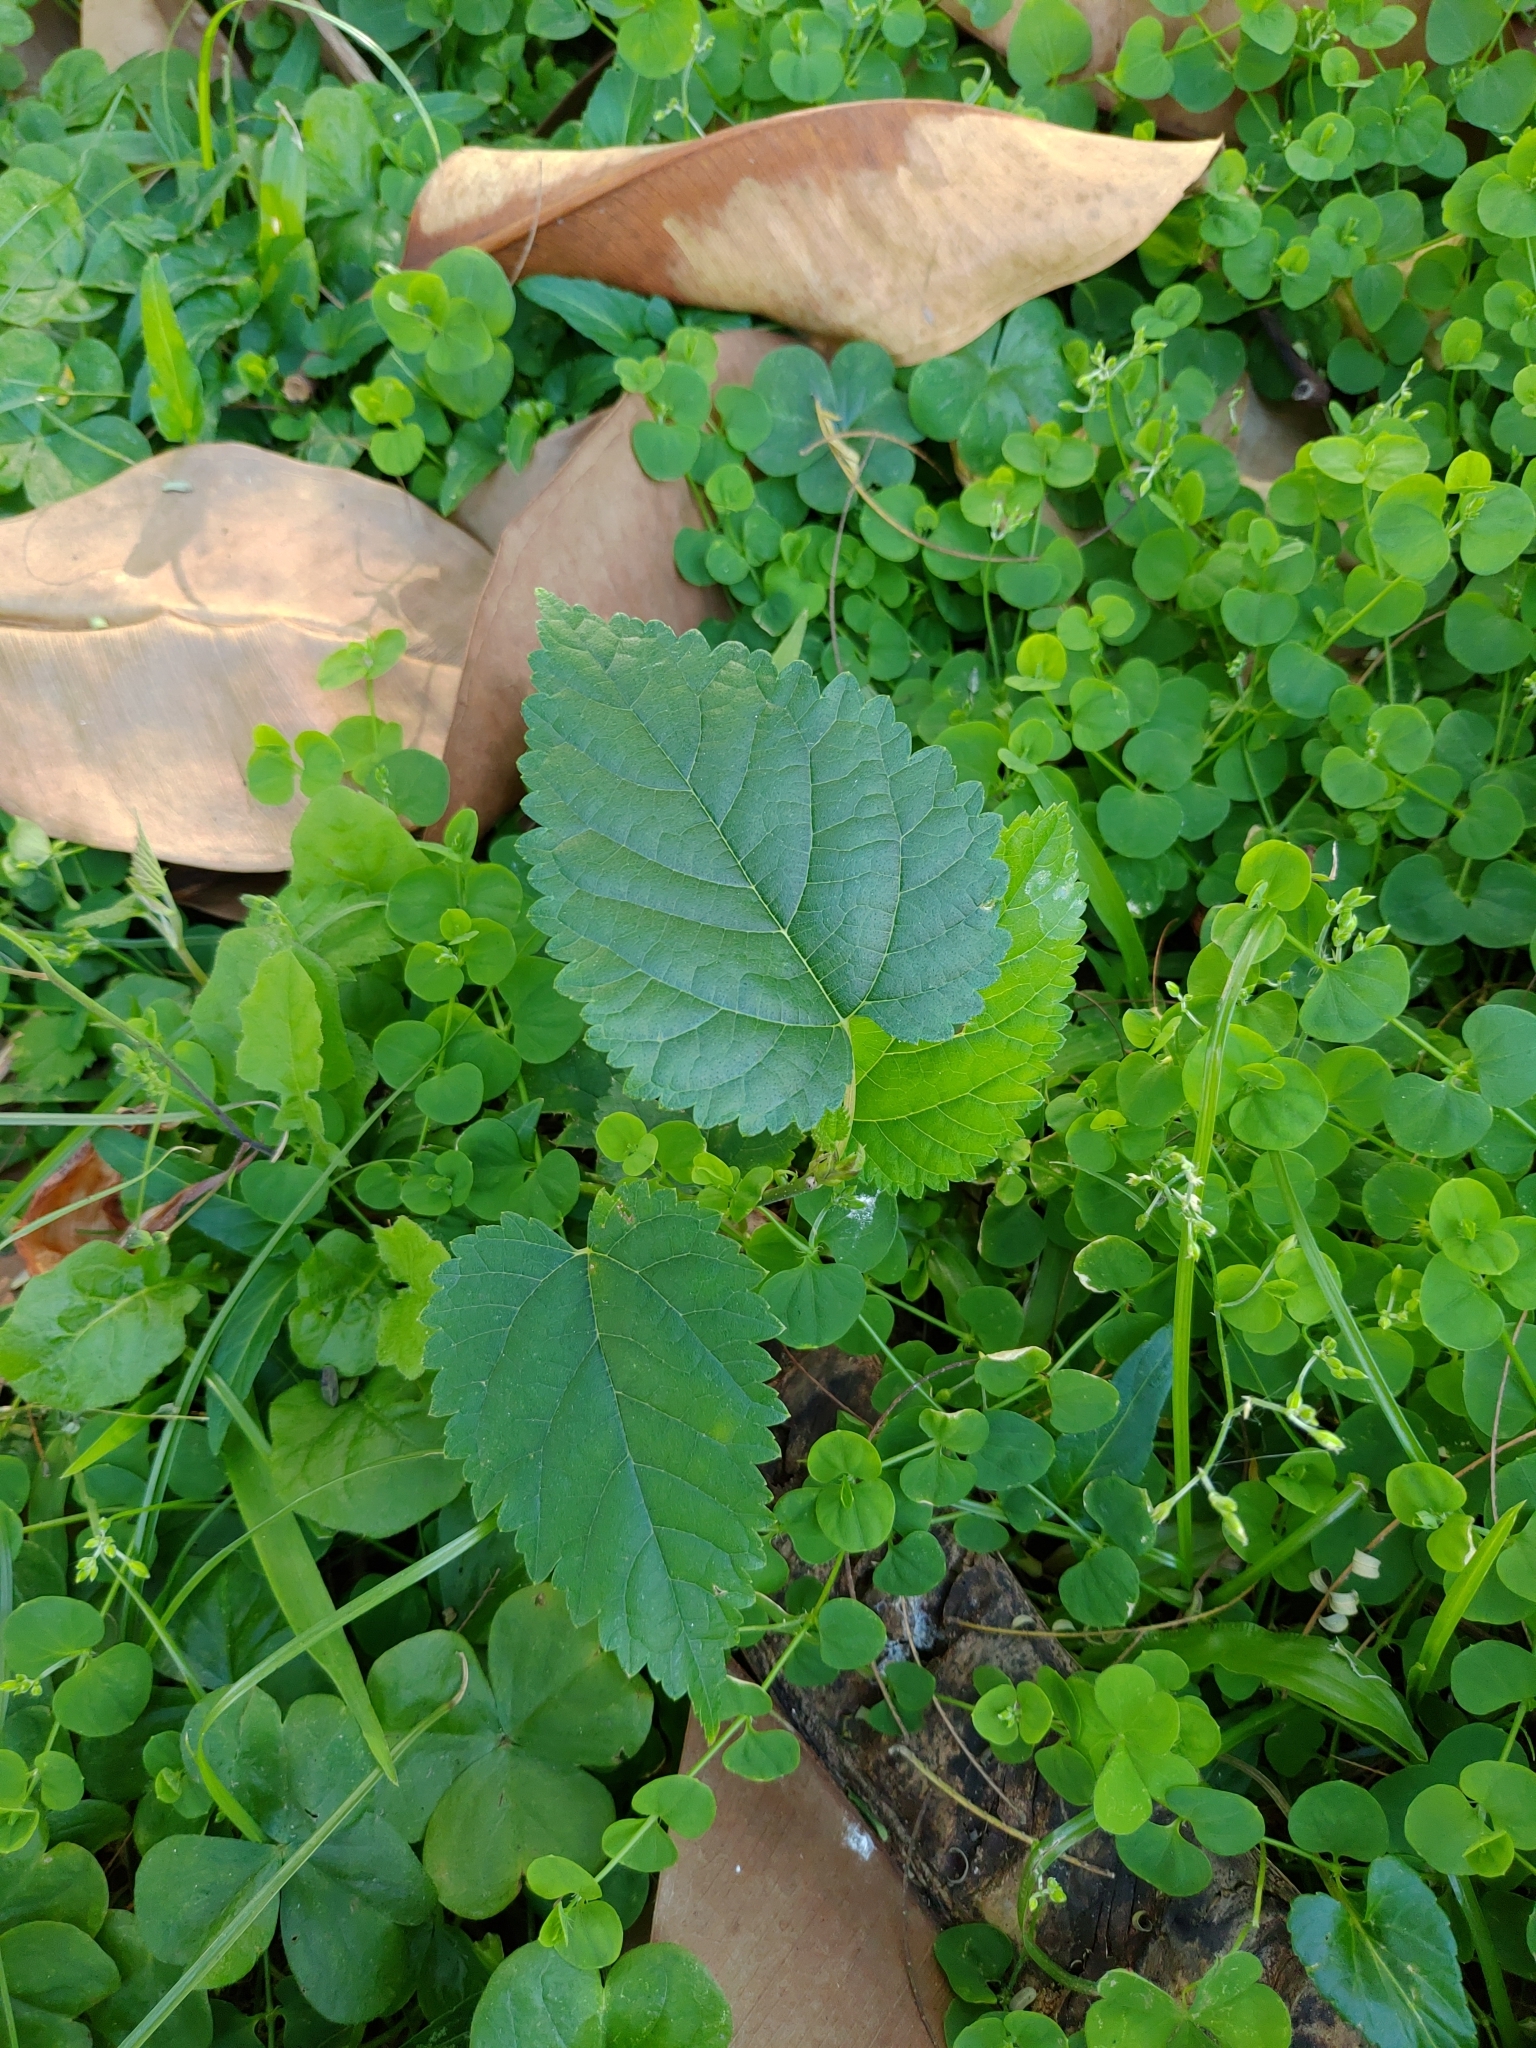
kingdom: Plantae
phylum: Tracheophyta
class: Magnoliopsida
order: Rosales
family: Moraceae
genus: Morus
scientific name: Morus indica
